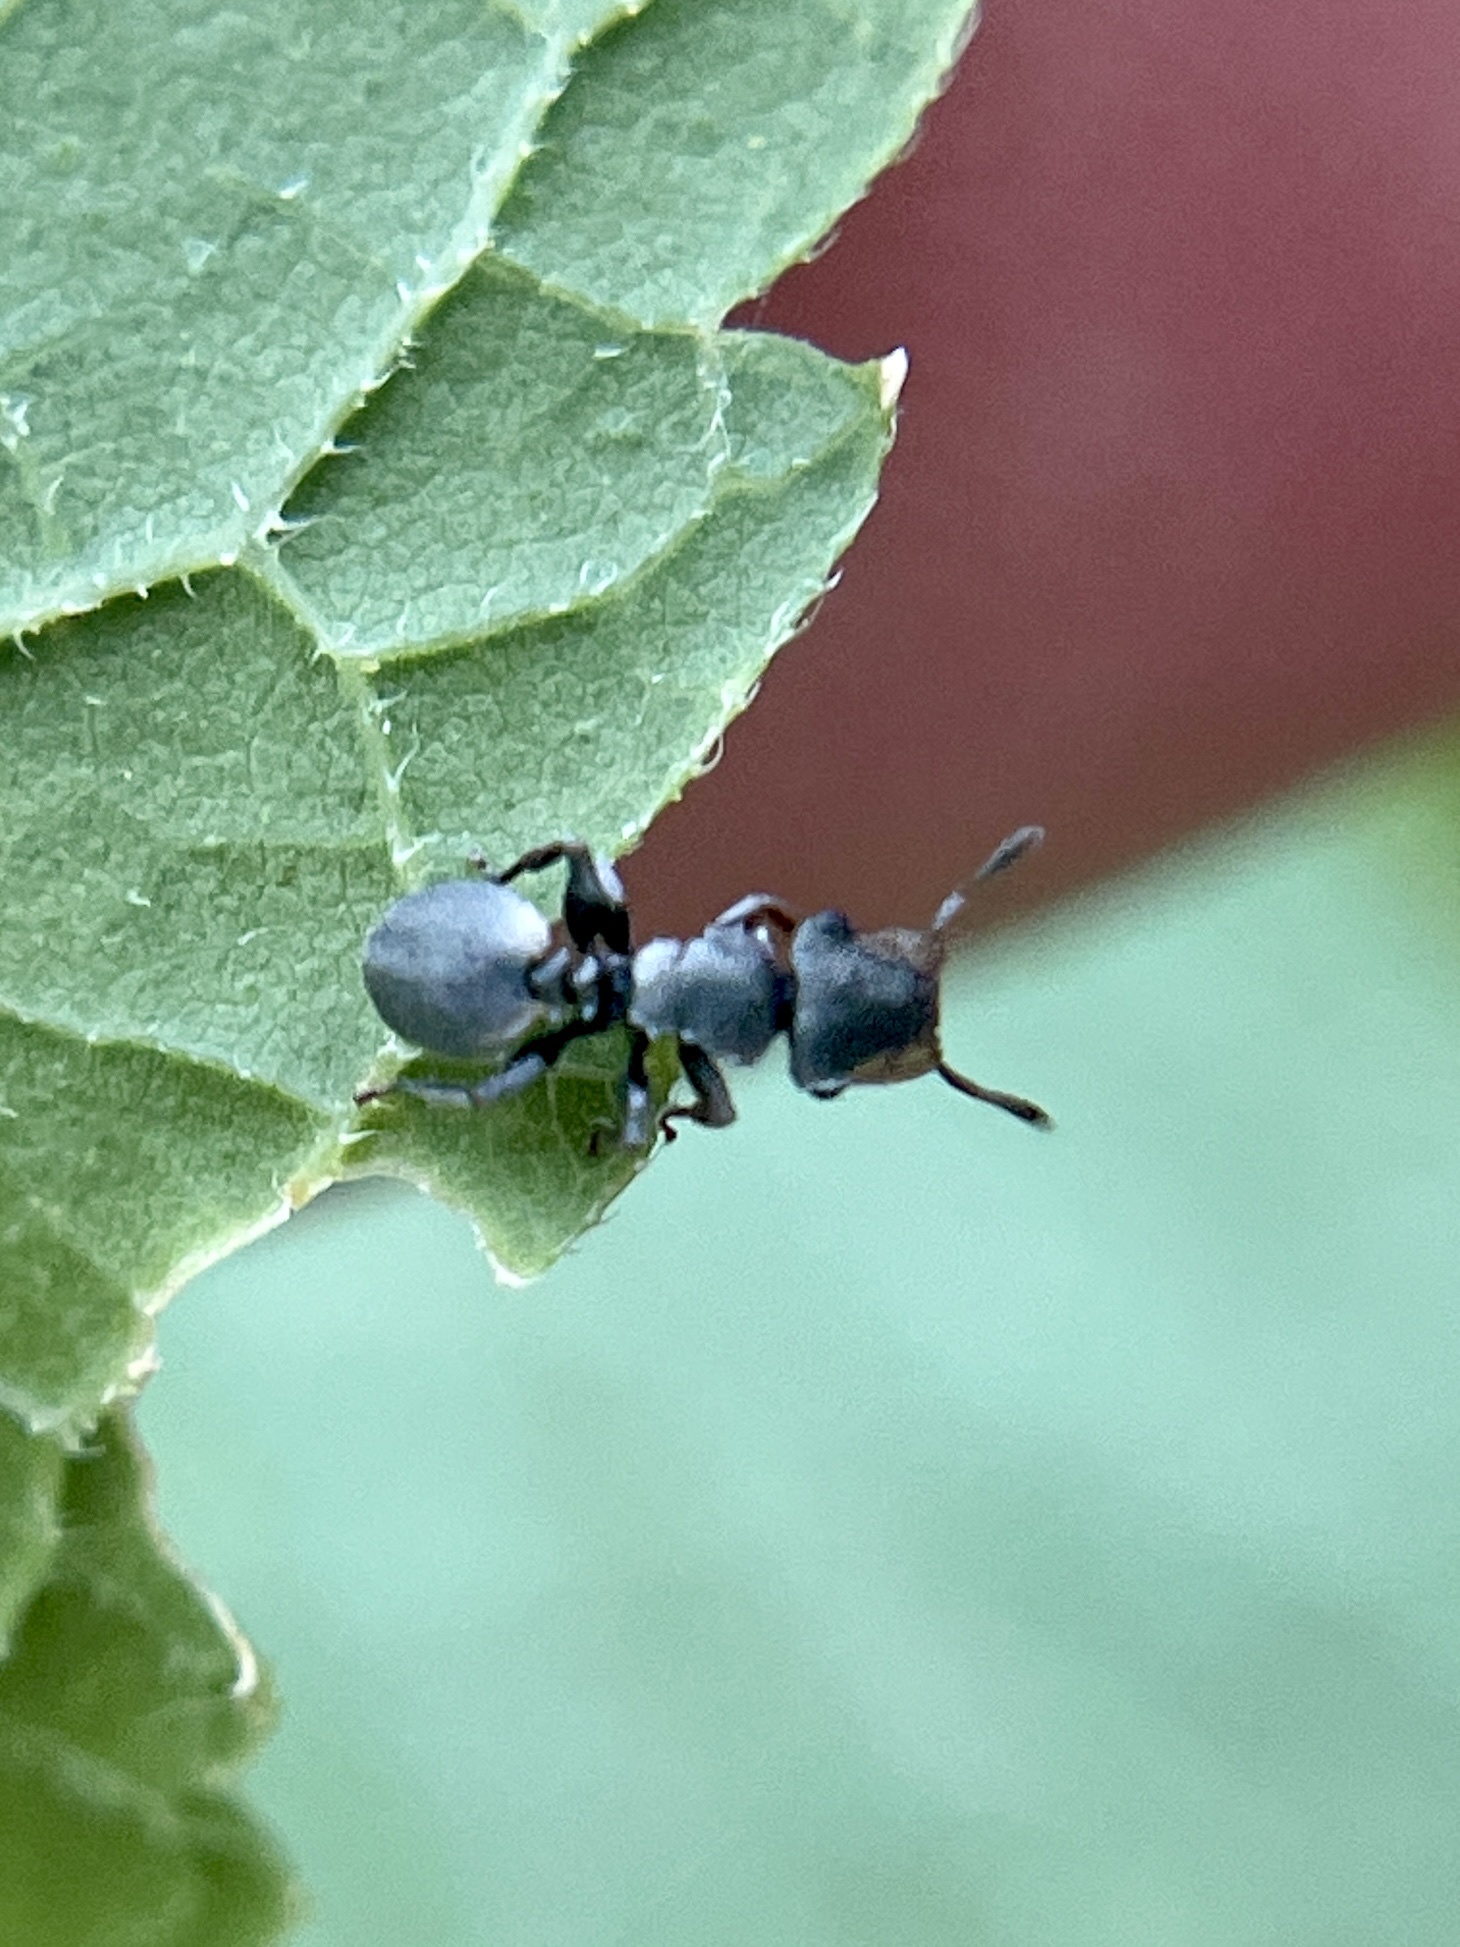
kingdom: Animalia
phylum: Arthropoda
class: Insecta
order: Hymenoptera
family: Formicidae
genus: Cephalotes
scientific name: Cephalotes texanus
